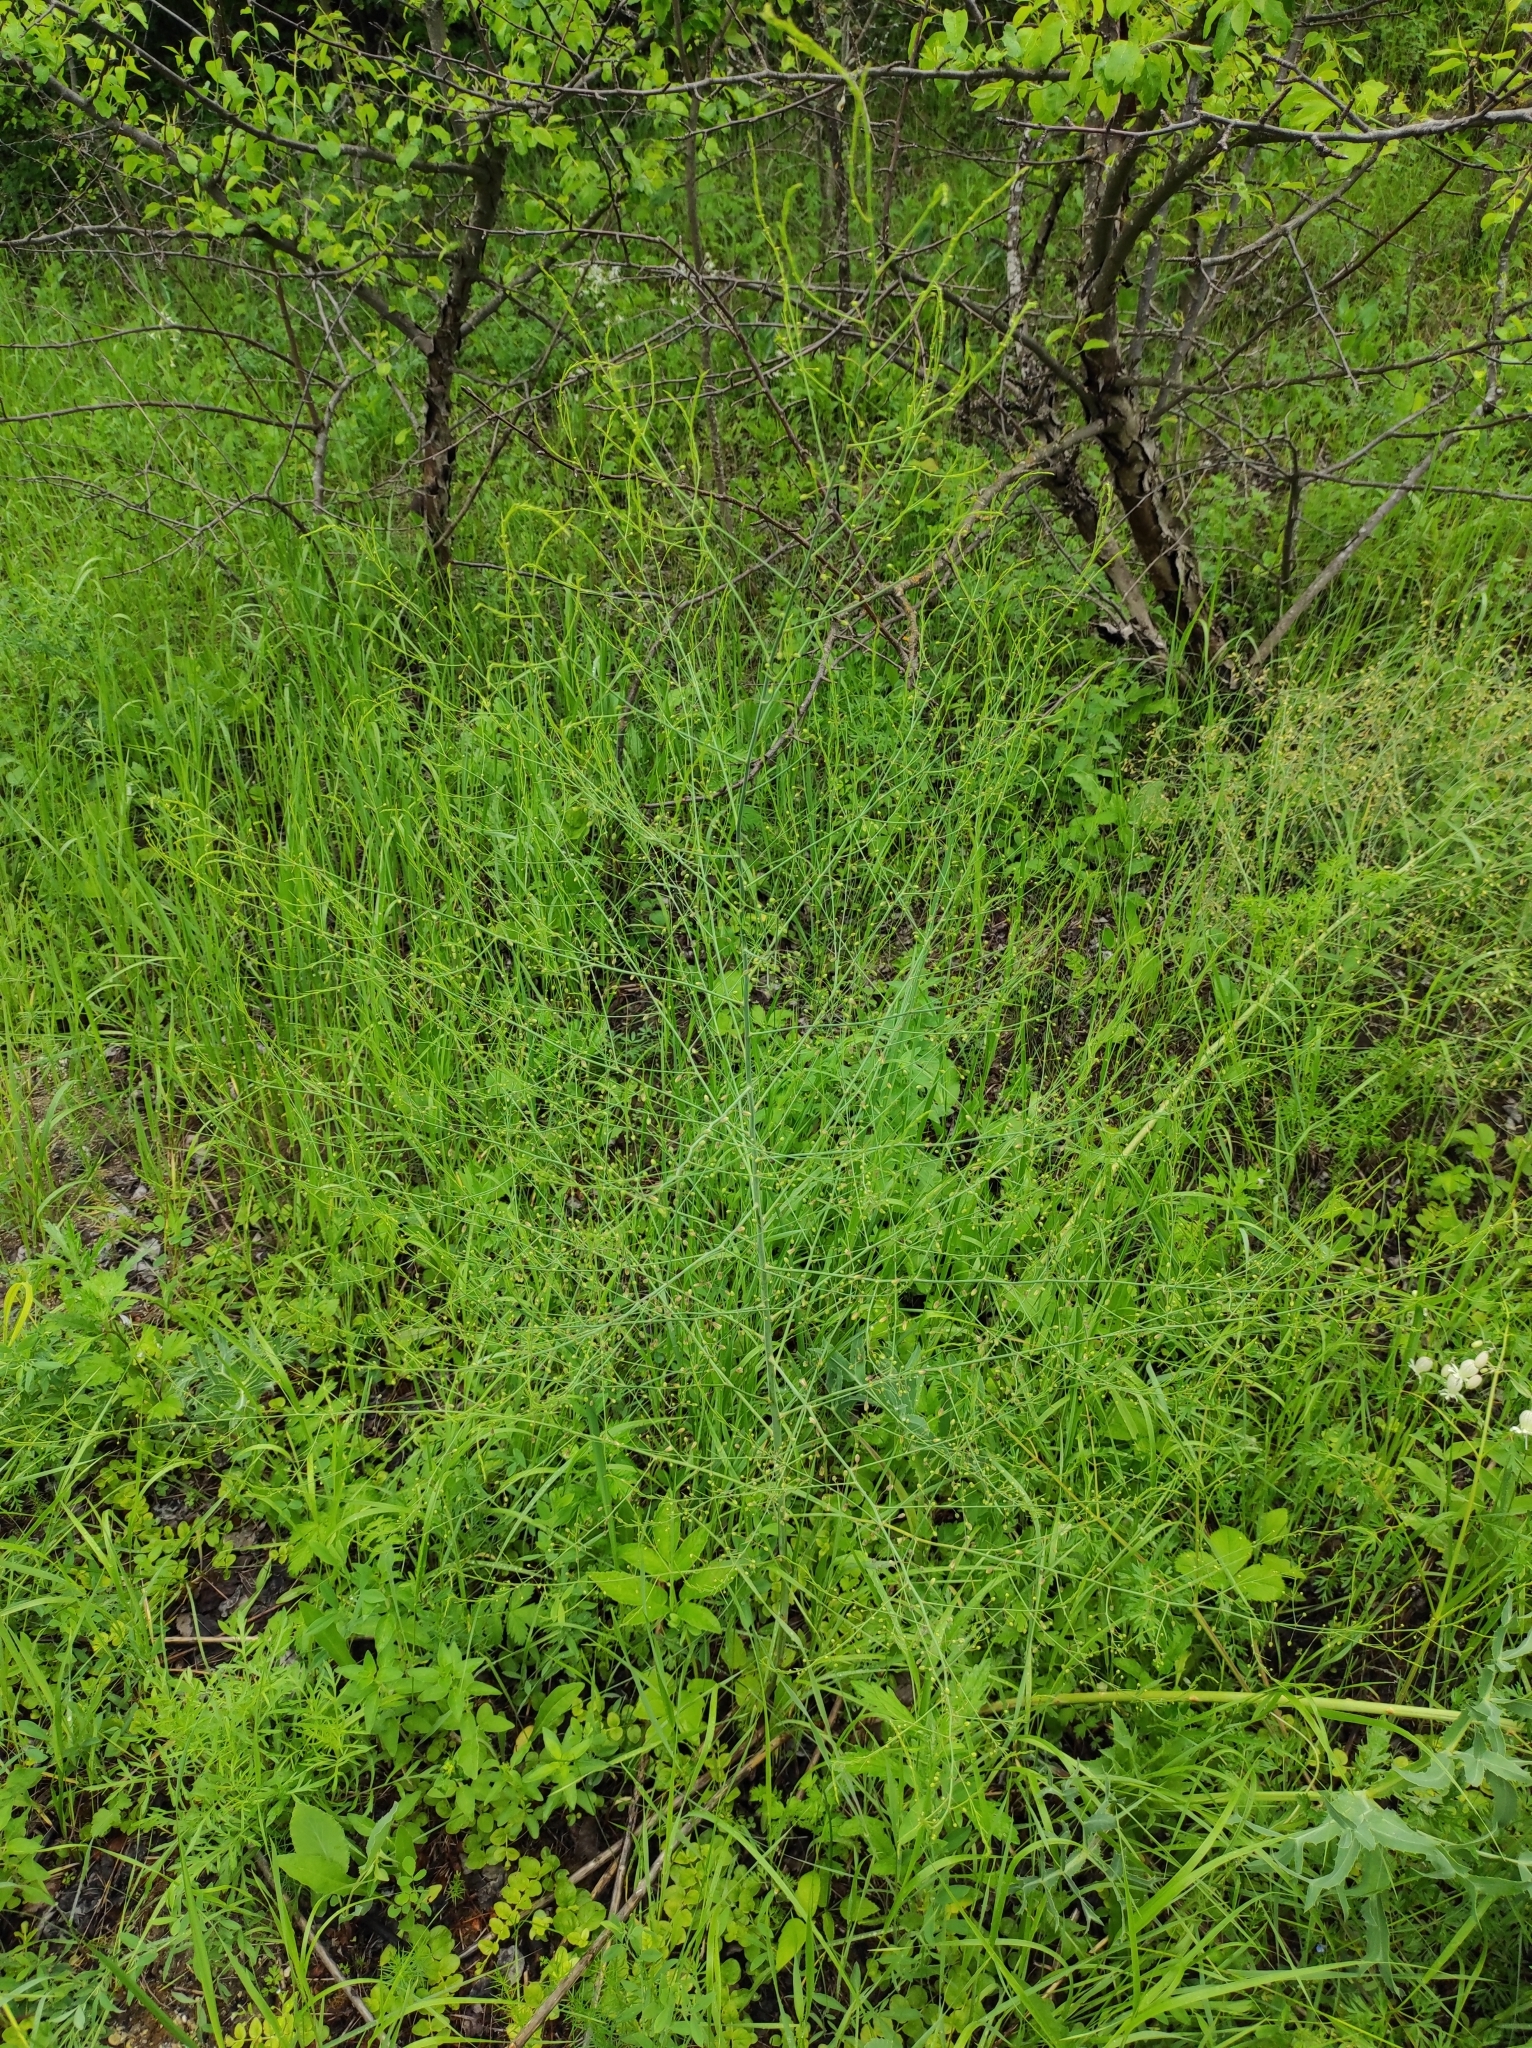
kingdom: Plantae
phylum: Tracheophyta
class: Liliopsida
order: Asparagales
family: Asparagaceae
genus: Asparagus
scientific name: Asparagus officinalis
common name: Garden asparagus
